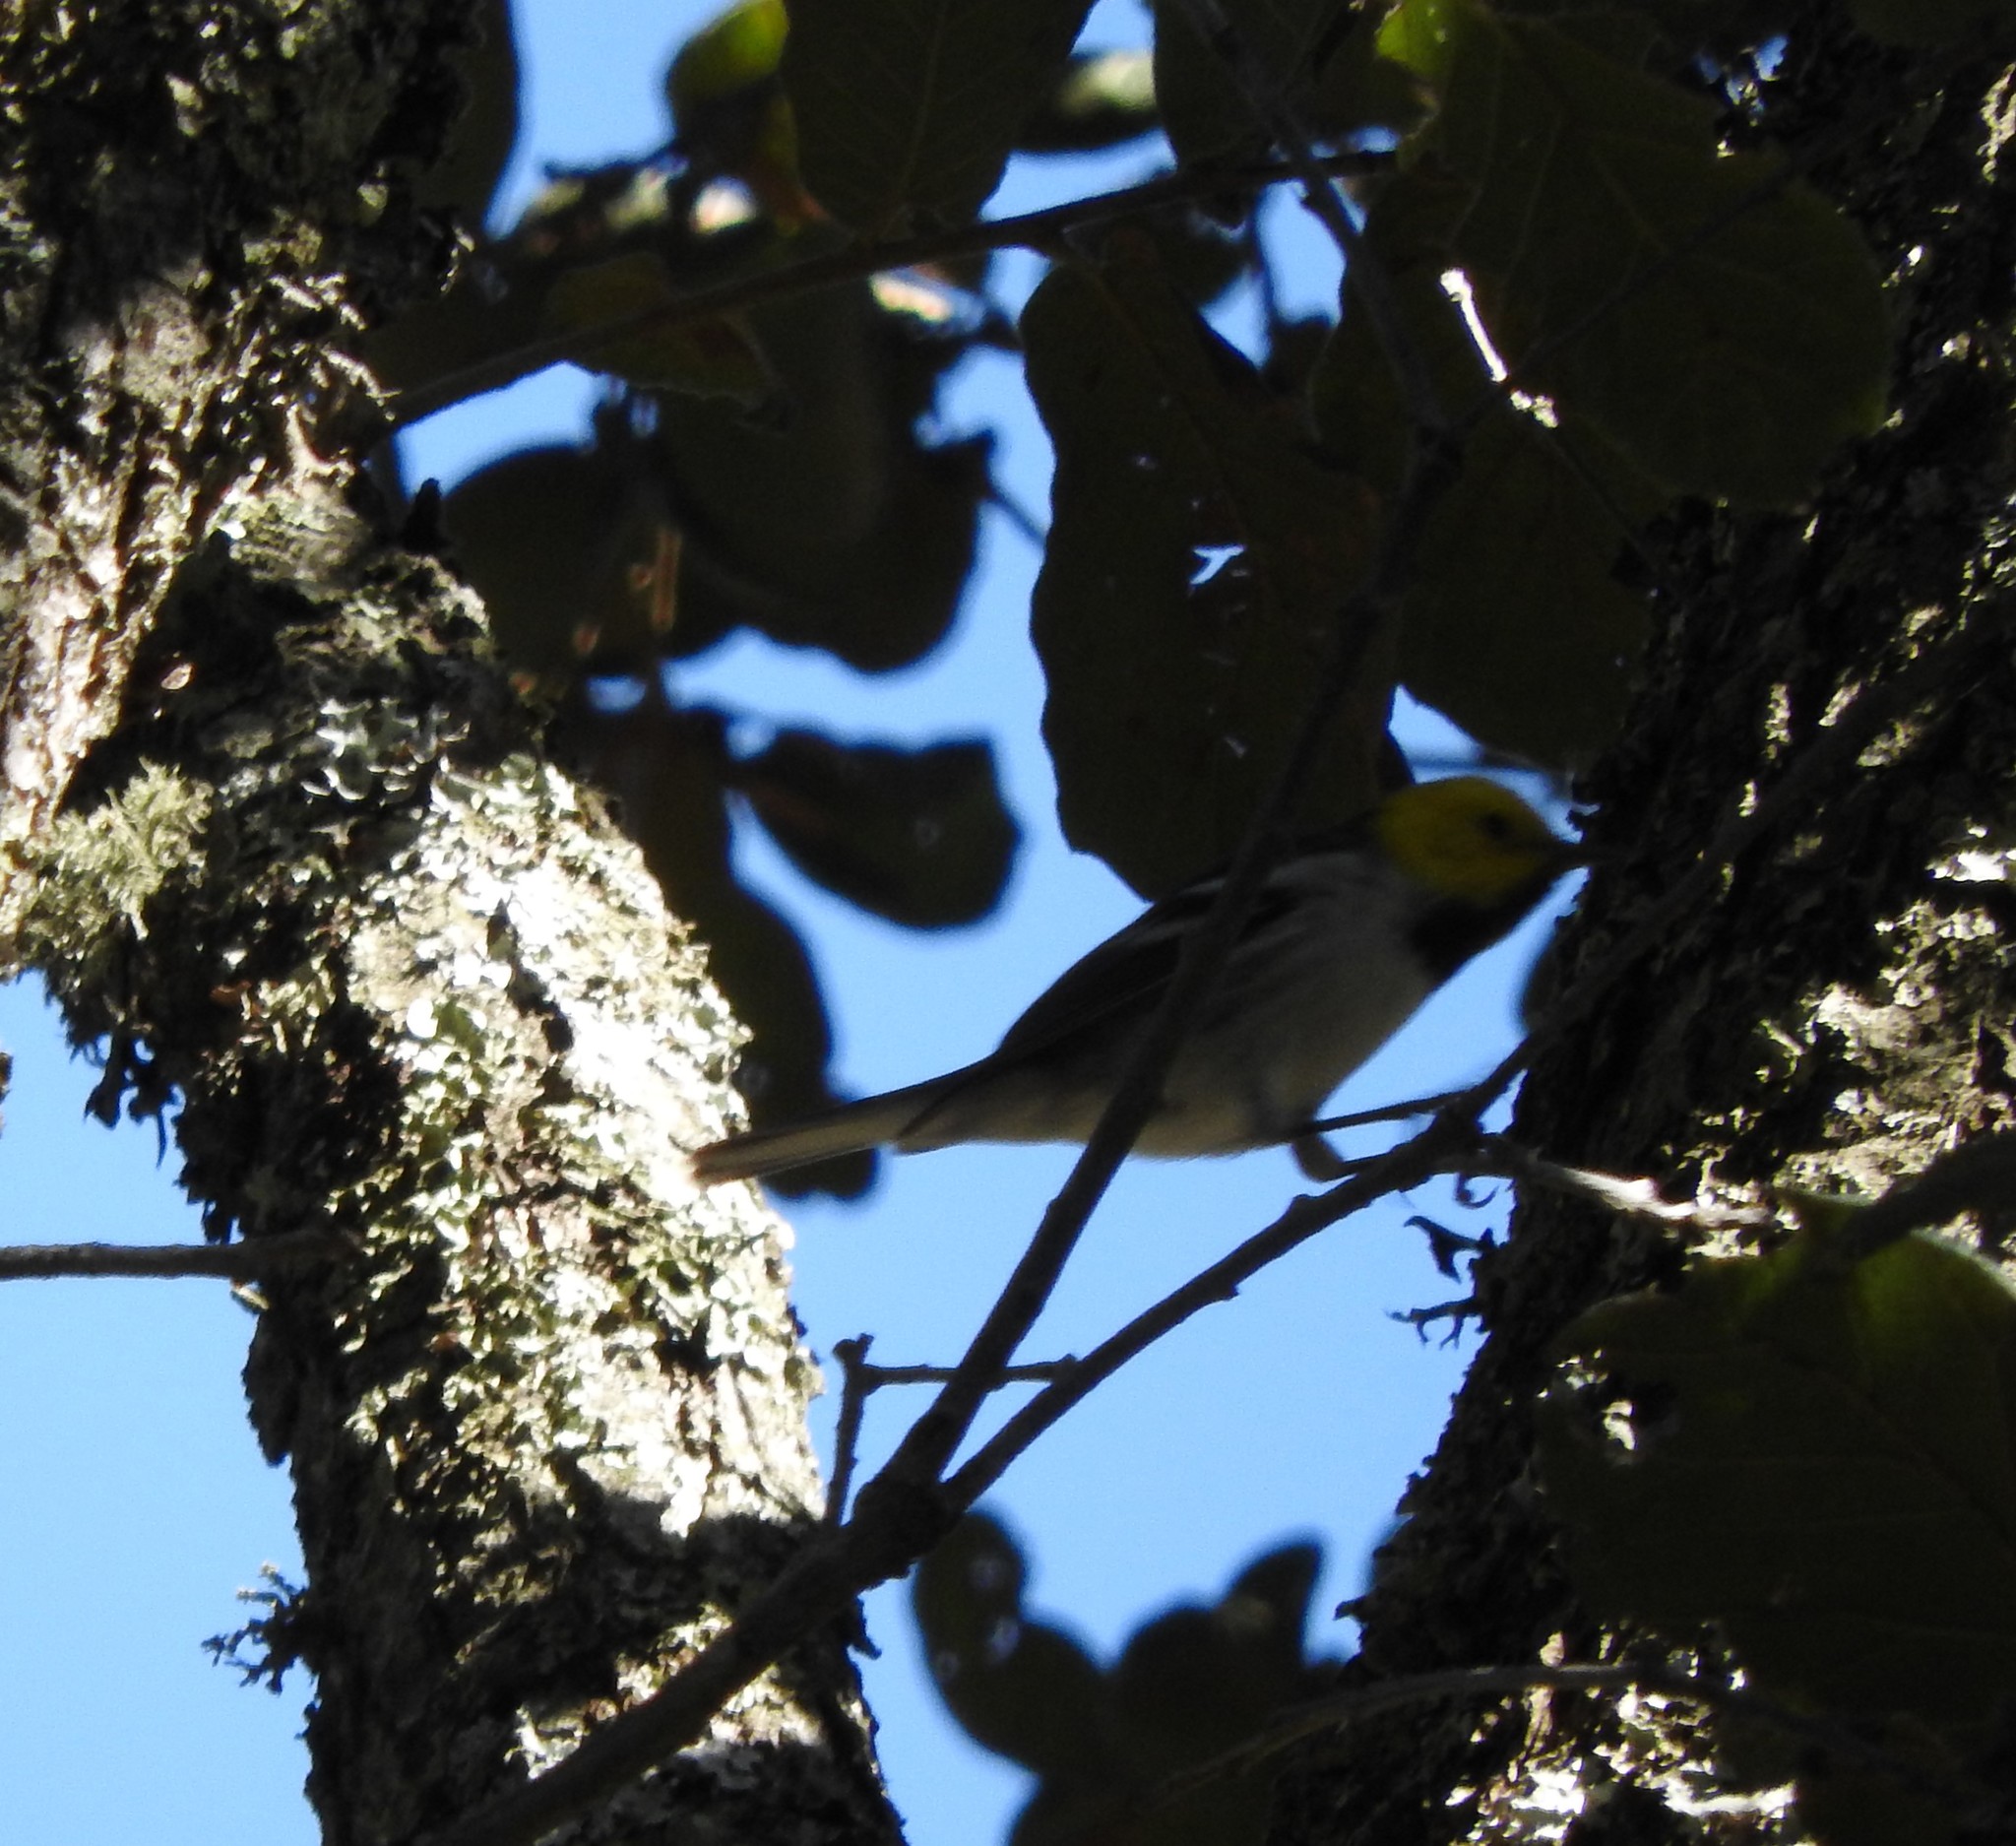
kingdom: Animalia
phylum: Chordata
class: Aves
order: Passeriformes
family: Parulidae
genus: Setophaga
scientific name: Setophaga occidentalis
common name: Hermit warbler
